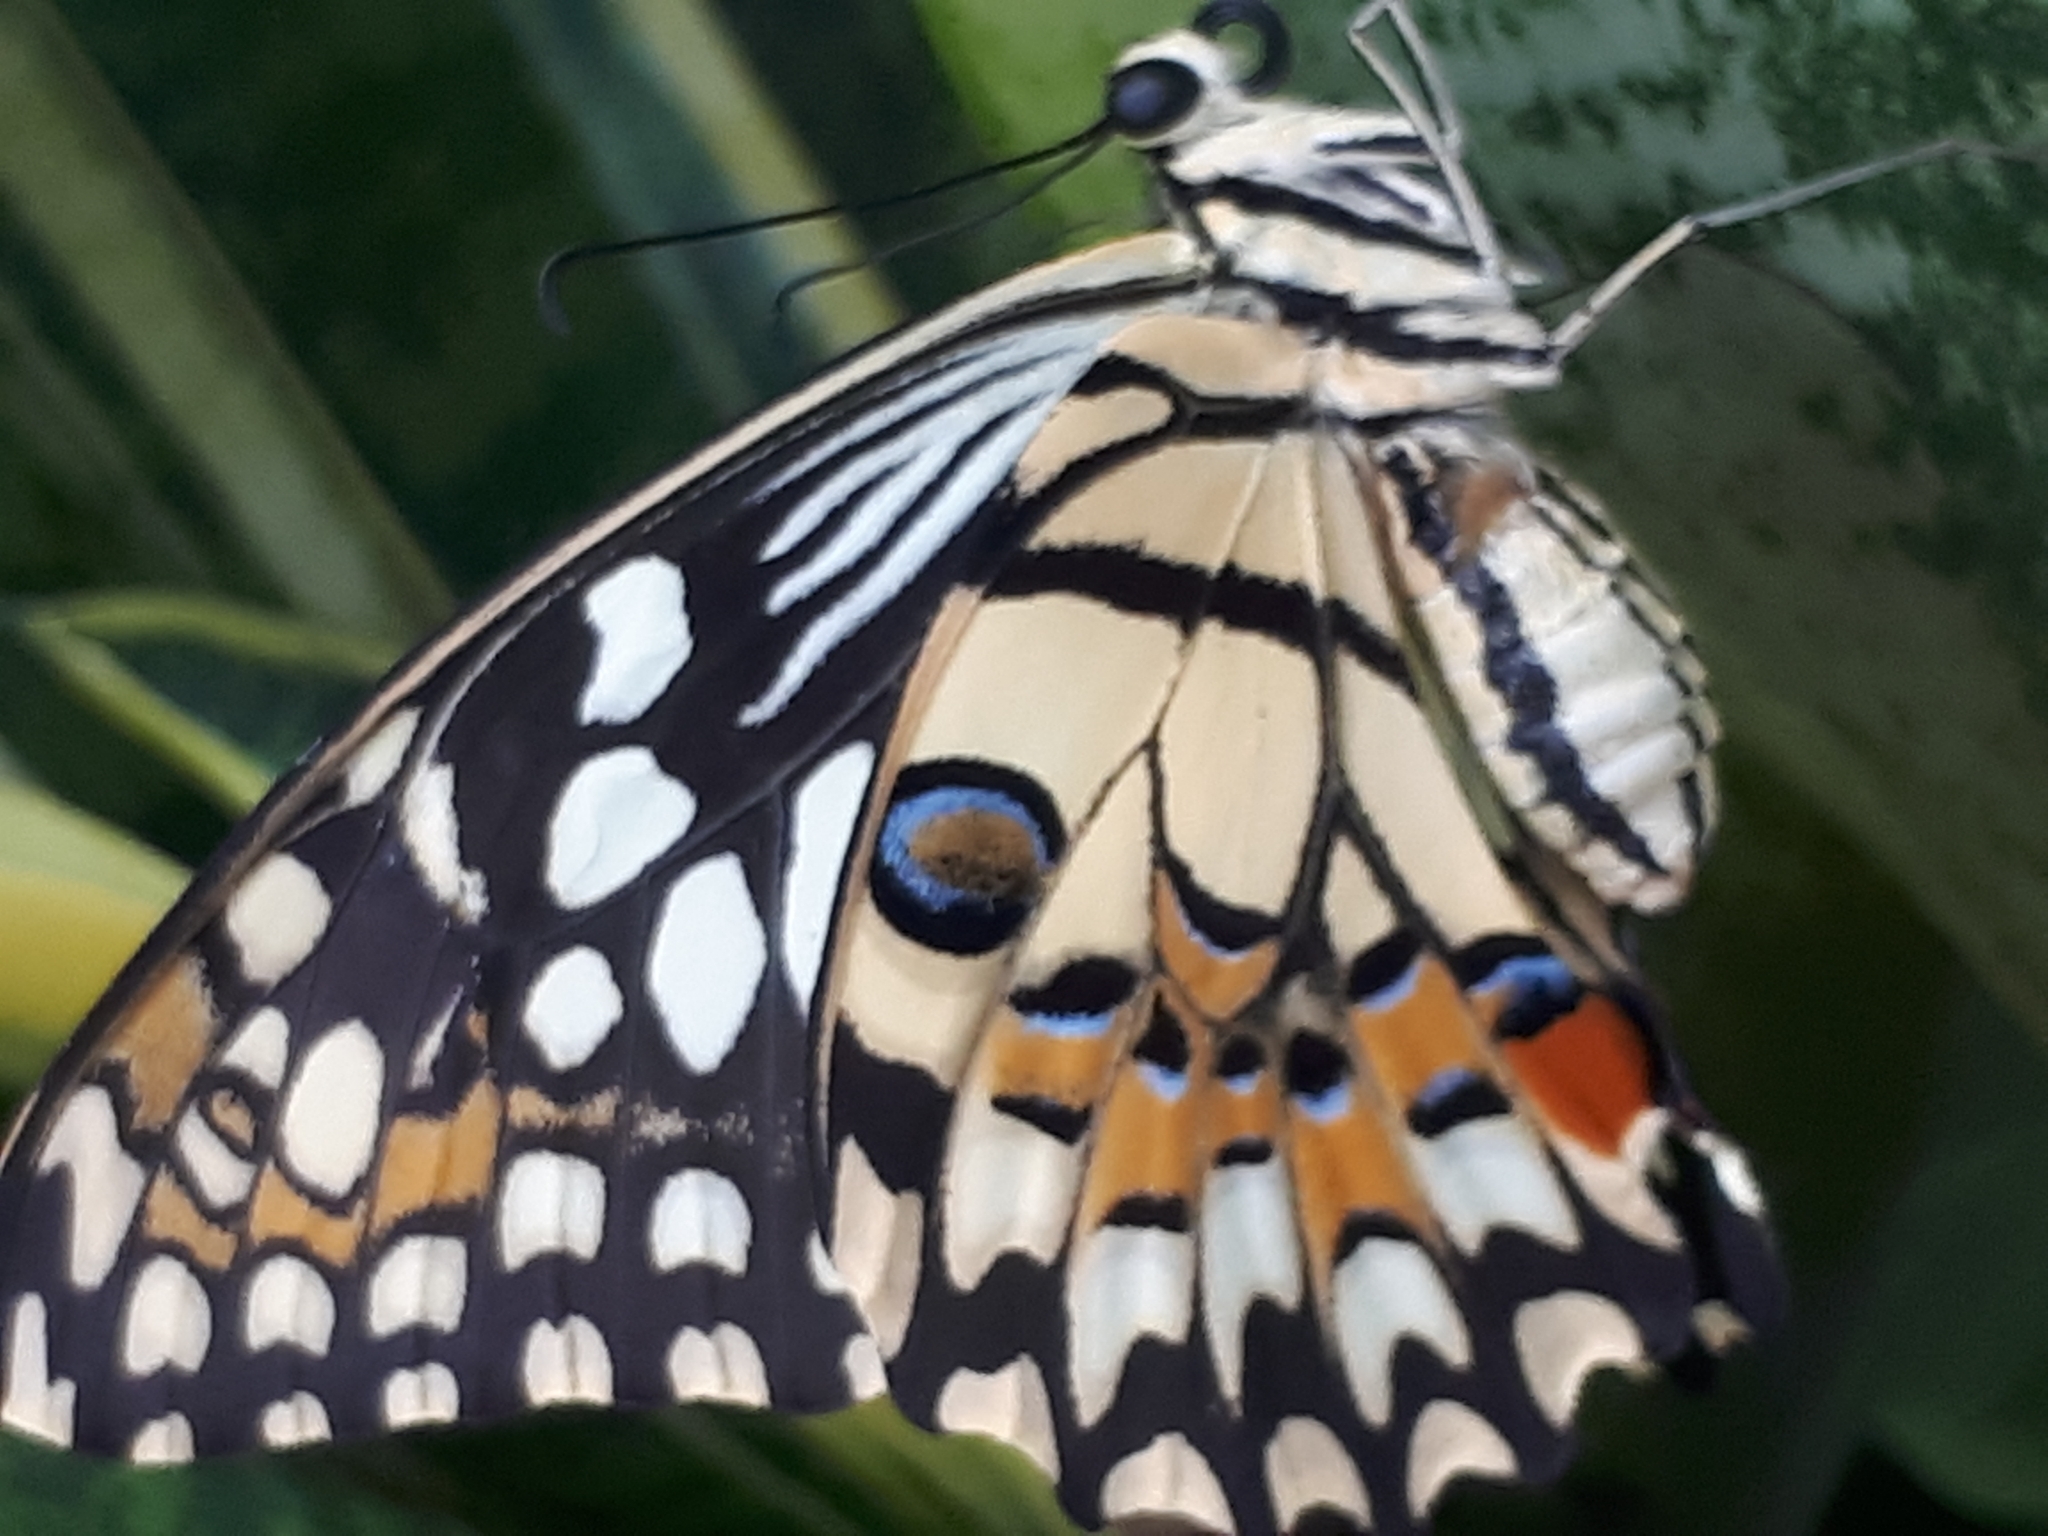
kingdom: Animalia
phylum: Arthropoda
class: Insecta
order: Lepidoptera
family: Papilionidae
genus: Papilio
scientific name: Papilio demoleus
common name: Lime butterfly
